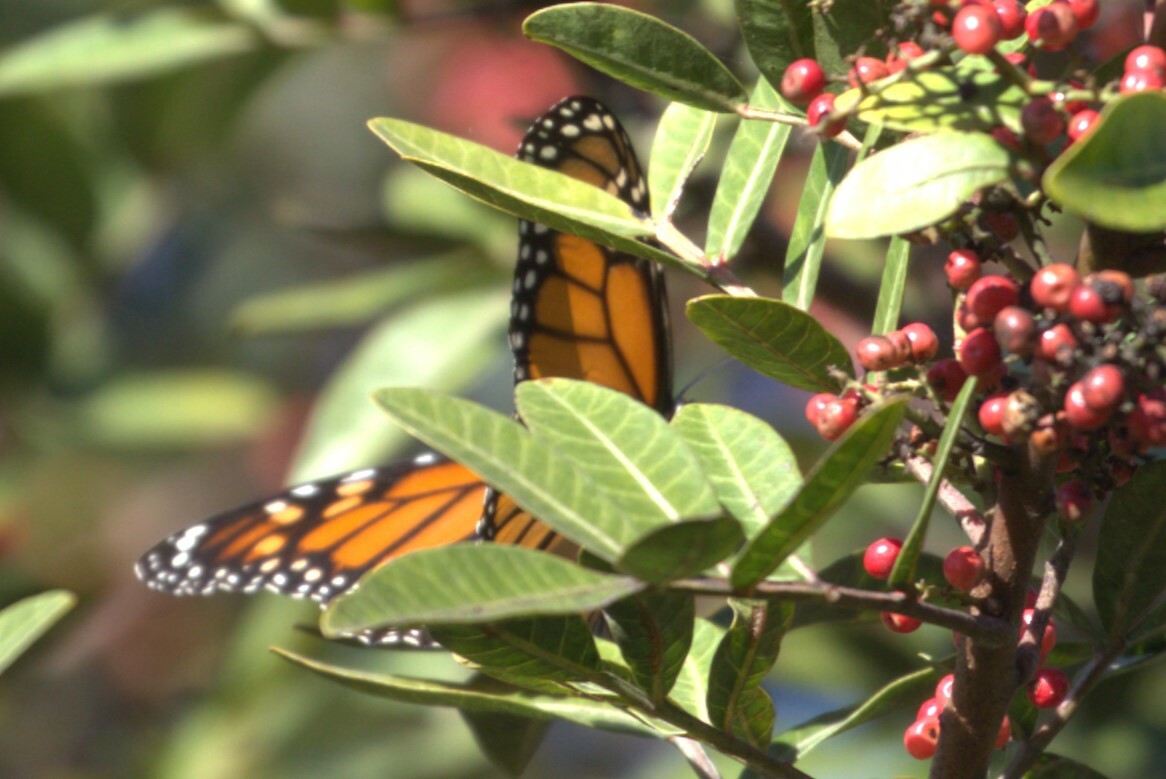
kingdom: Animalia
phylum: Arthropoda
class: Insecta
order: Lepidoptera
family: Nymphalidae
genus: Danaus
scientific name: Danaus plexippus
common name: Monarch
